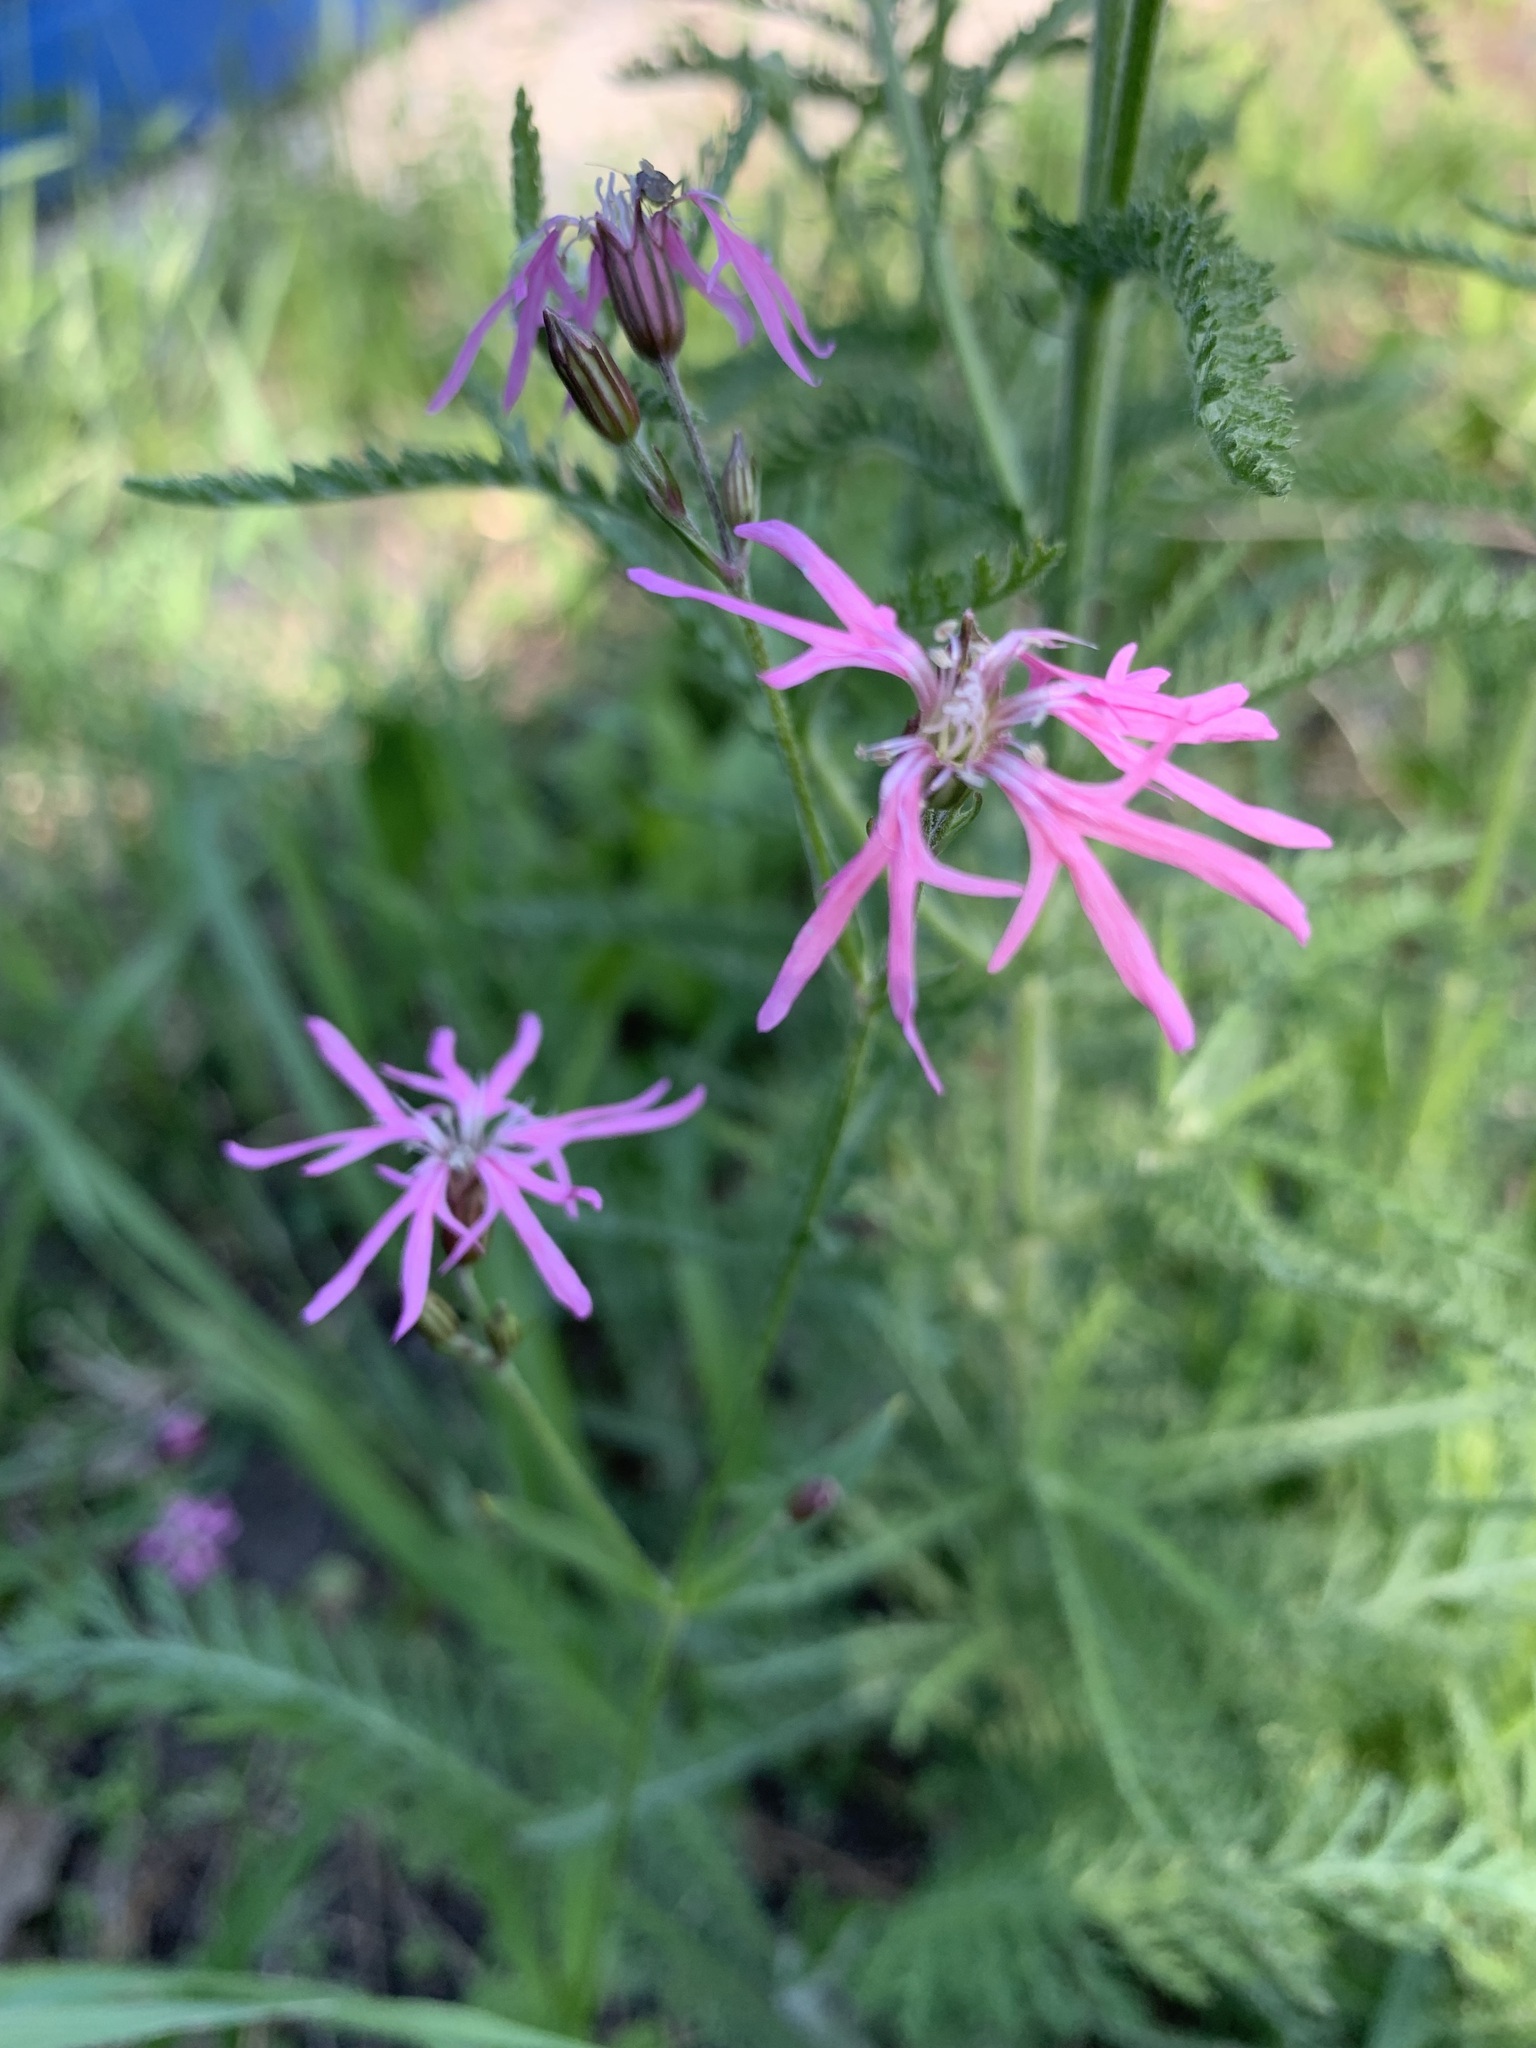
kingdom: Plantae
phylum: Tracheophyta
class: Magnoliopsida
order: Caryophyllales
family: Caryophyllaceae
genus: Silene
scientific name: Silene flos-cuculi
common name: Ragged-robin
